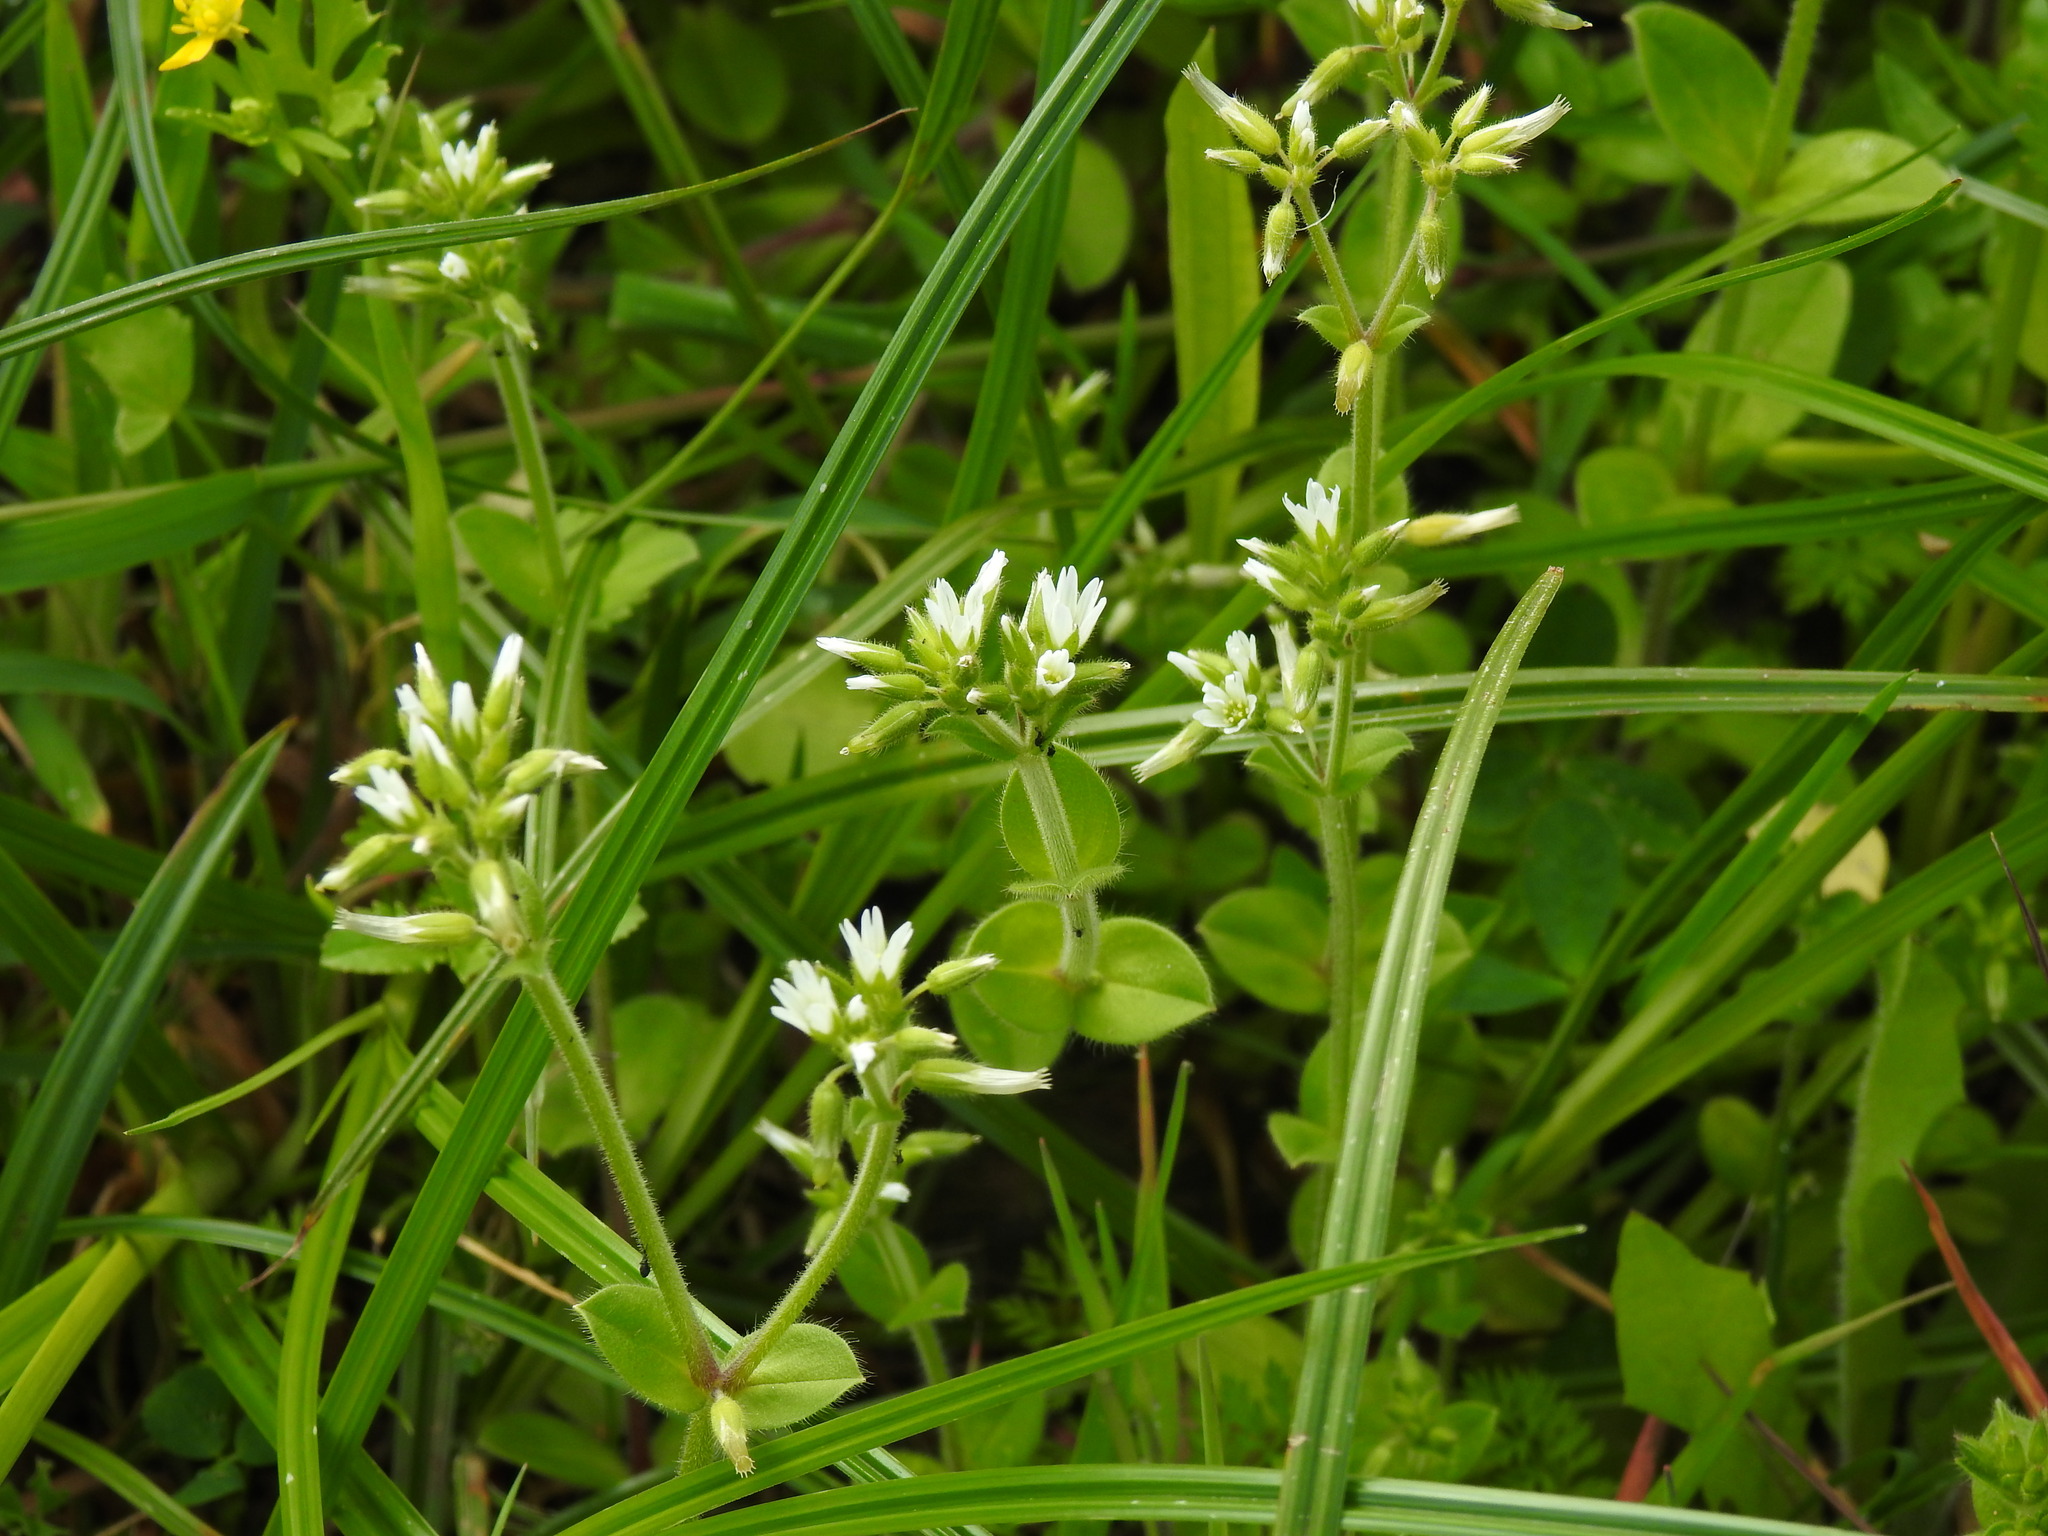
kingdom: Plantae
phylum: Tracheophyta
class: Magnoliopsida
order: Caryophyllales
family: Caryophyllaceae
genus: Cerastium
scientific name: Cerastium glomeratum
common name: Sticky chickweed
